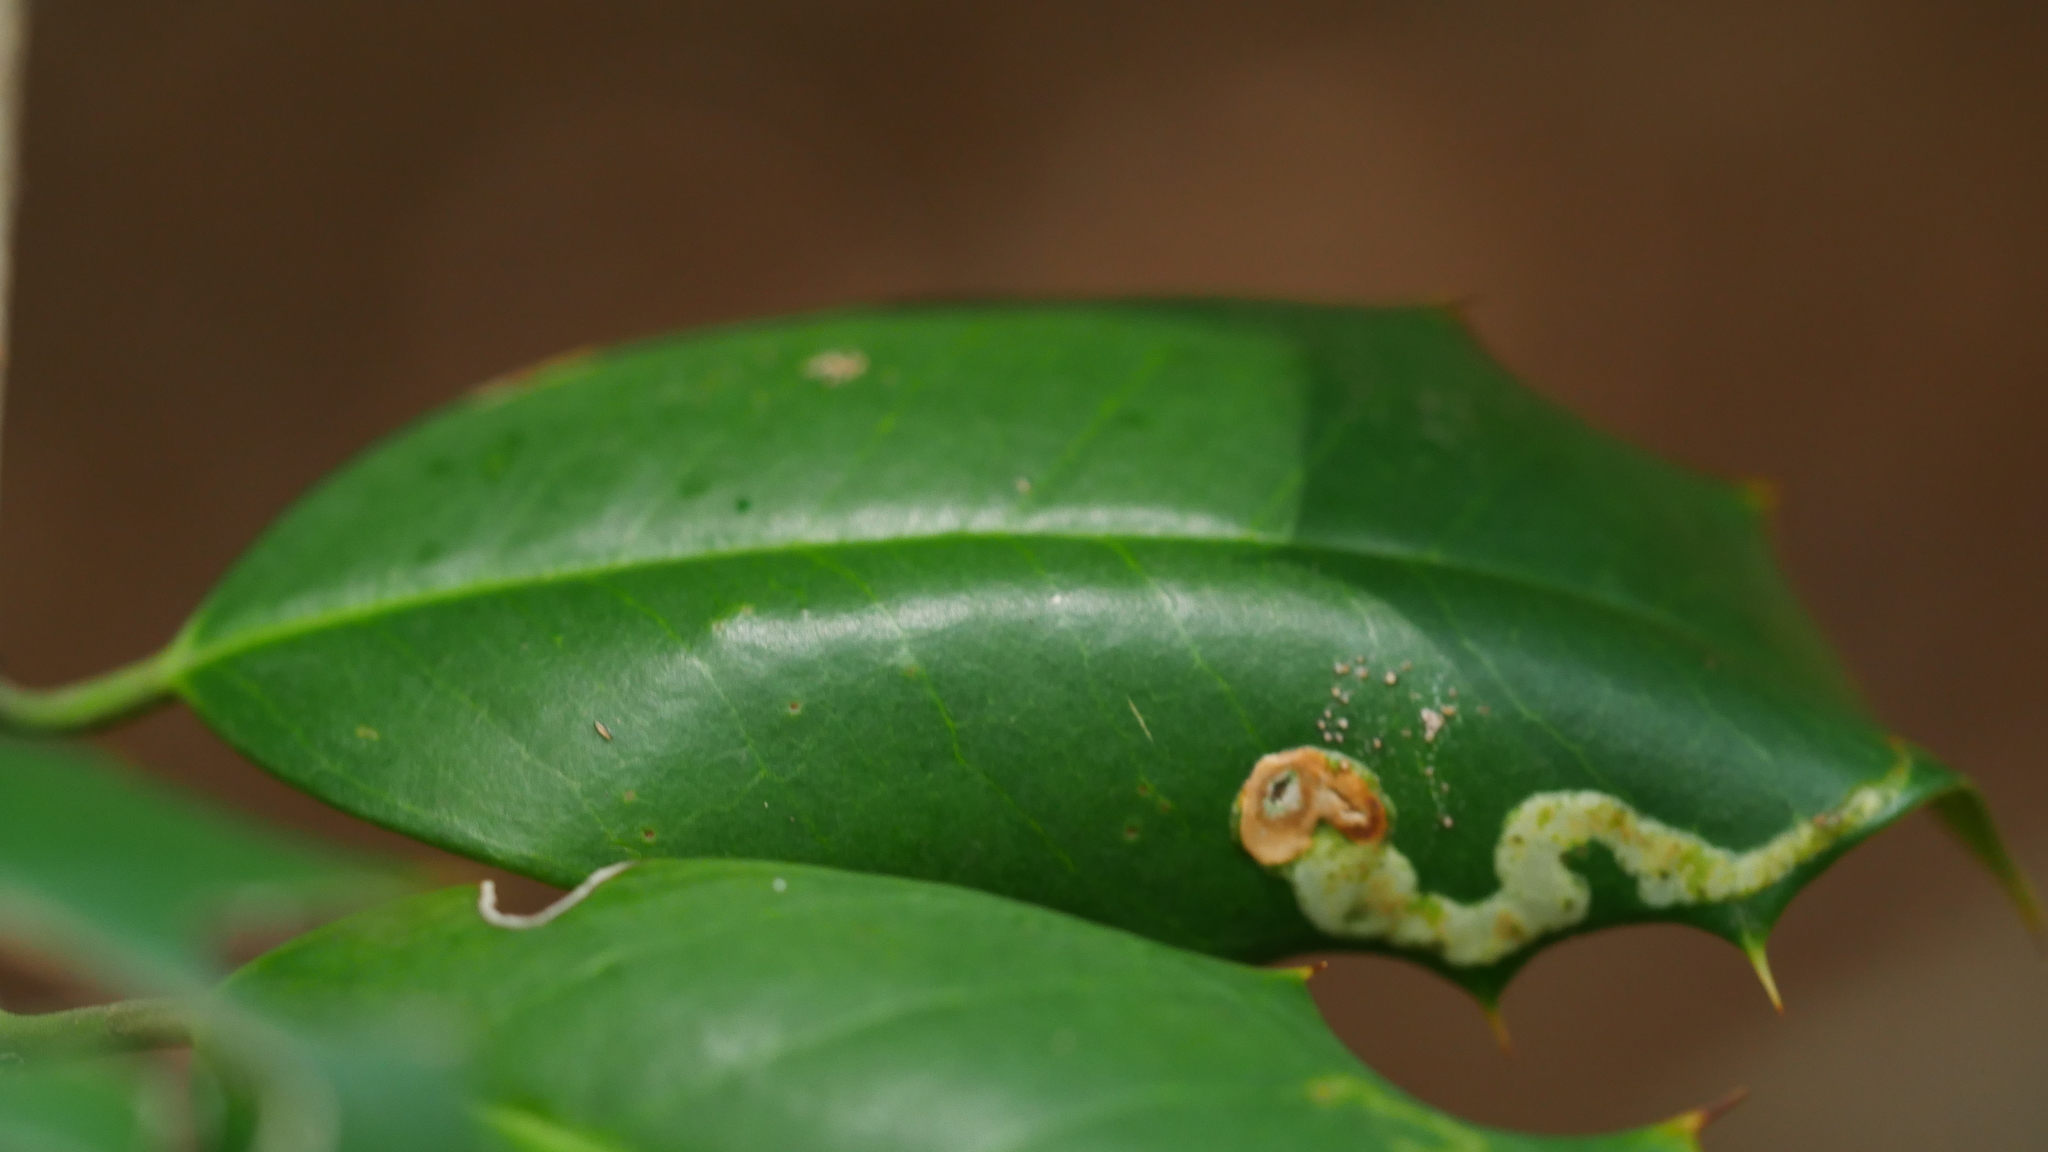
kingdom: Animalia
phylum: Arthropoda
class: Insecta
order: Diptera
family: Agromyzidae
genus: Phytomyza
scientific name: Phytomyza
